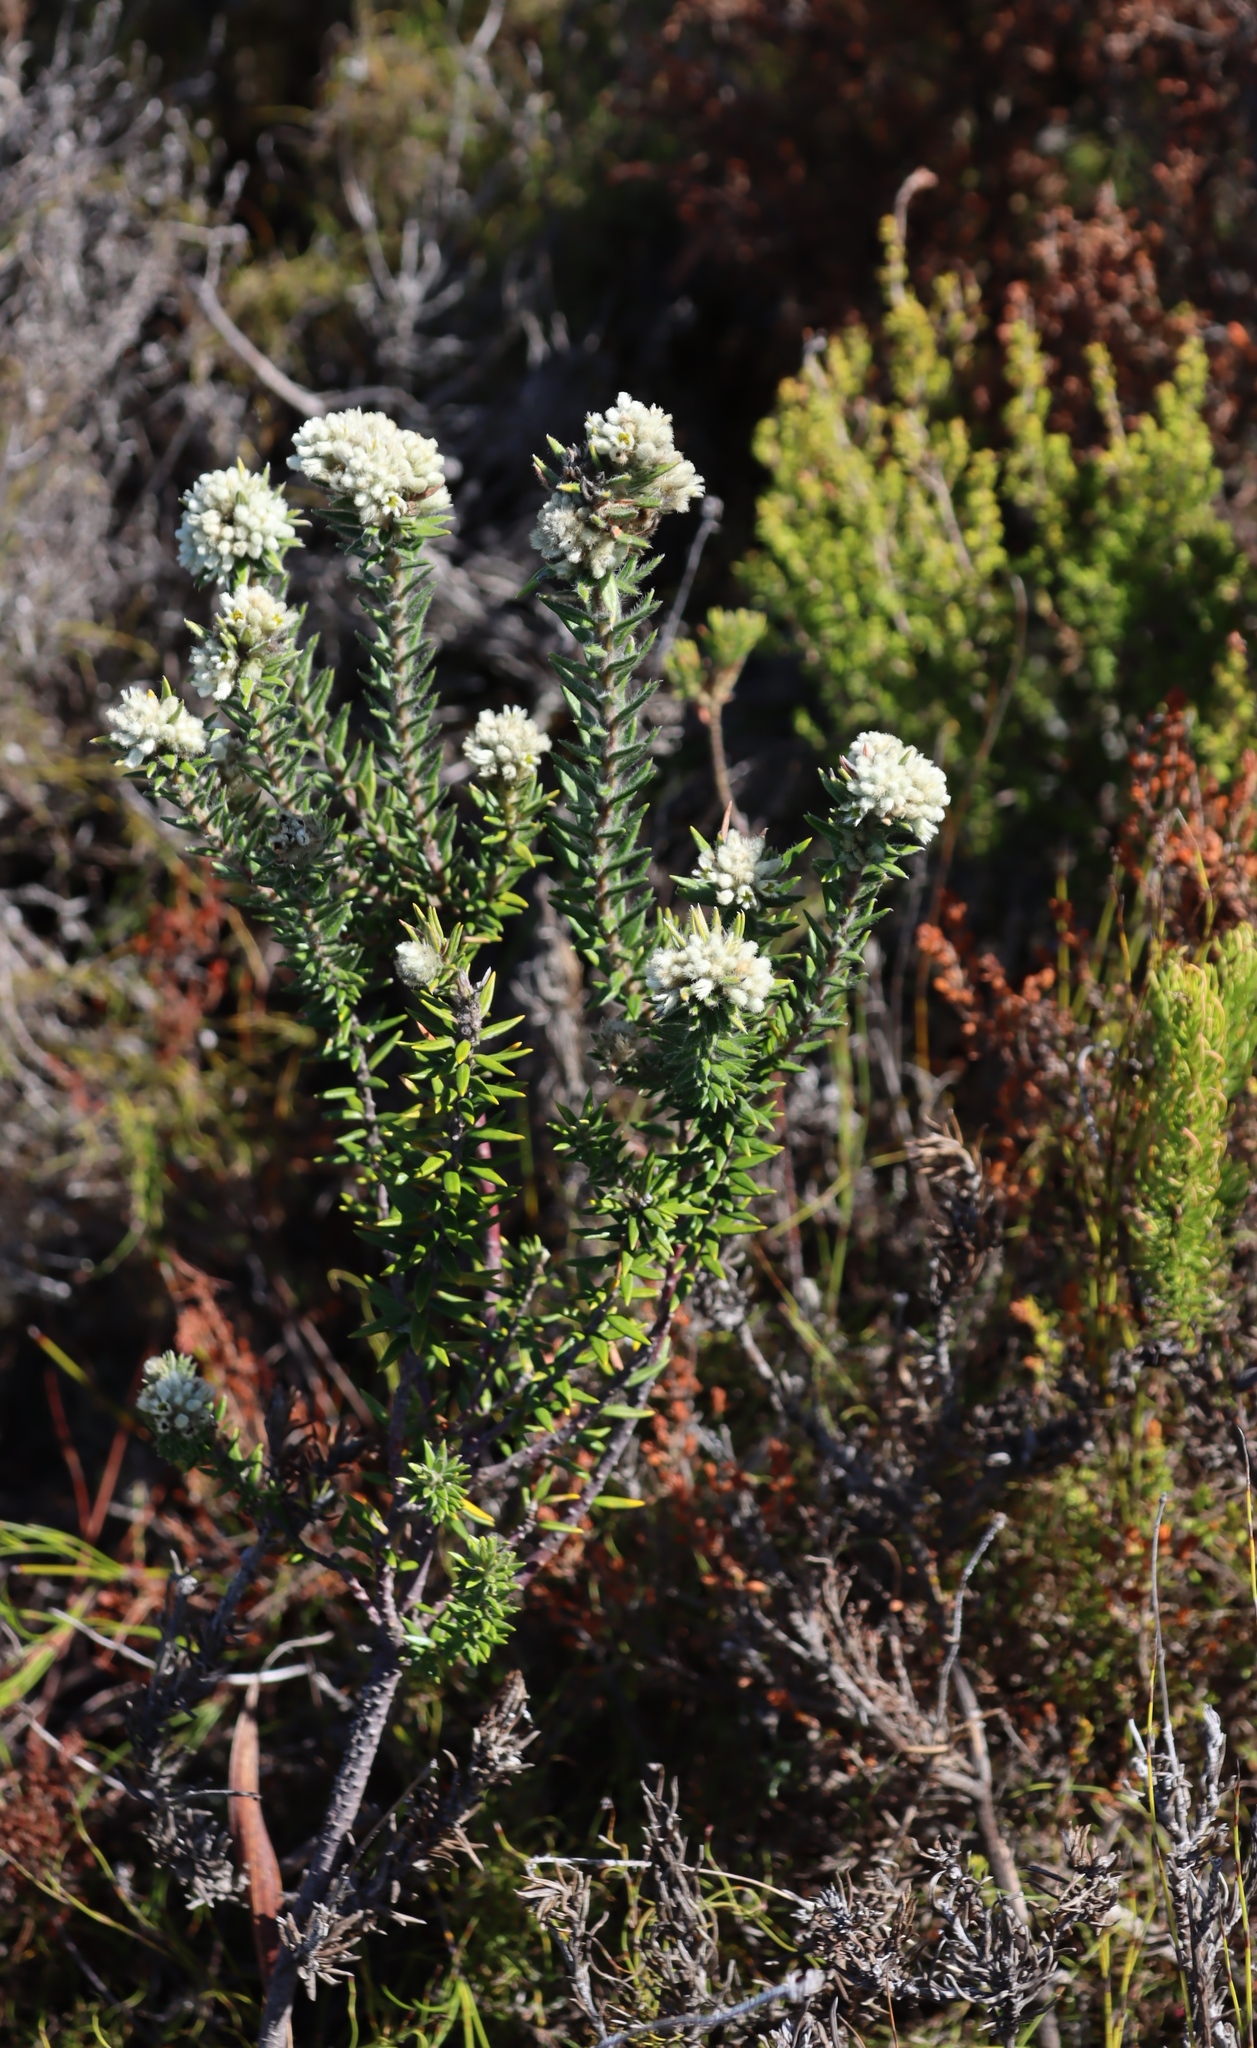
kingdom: Plantae
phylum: Tracheophyta
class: Magnoliopsida
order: Rosales
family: Rhamnaceae
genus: Phylica
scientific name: Phylica strigosa
